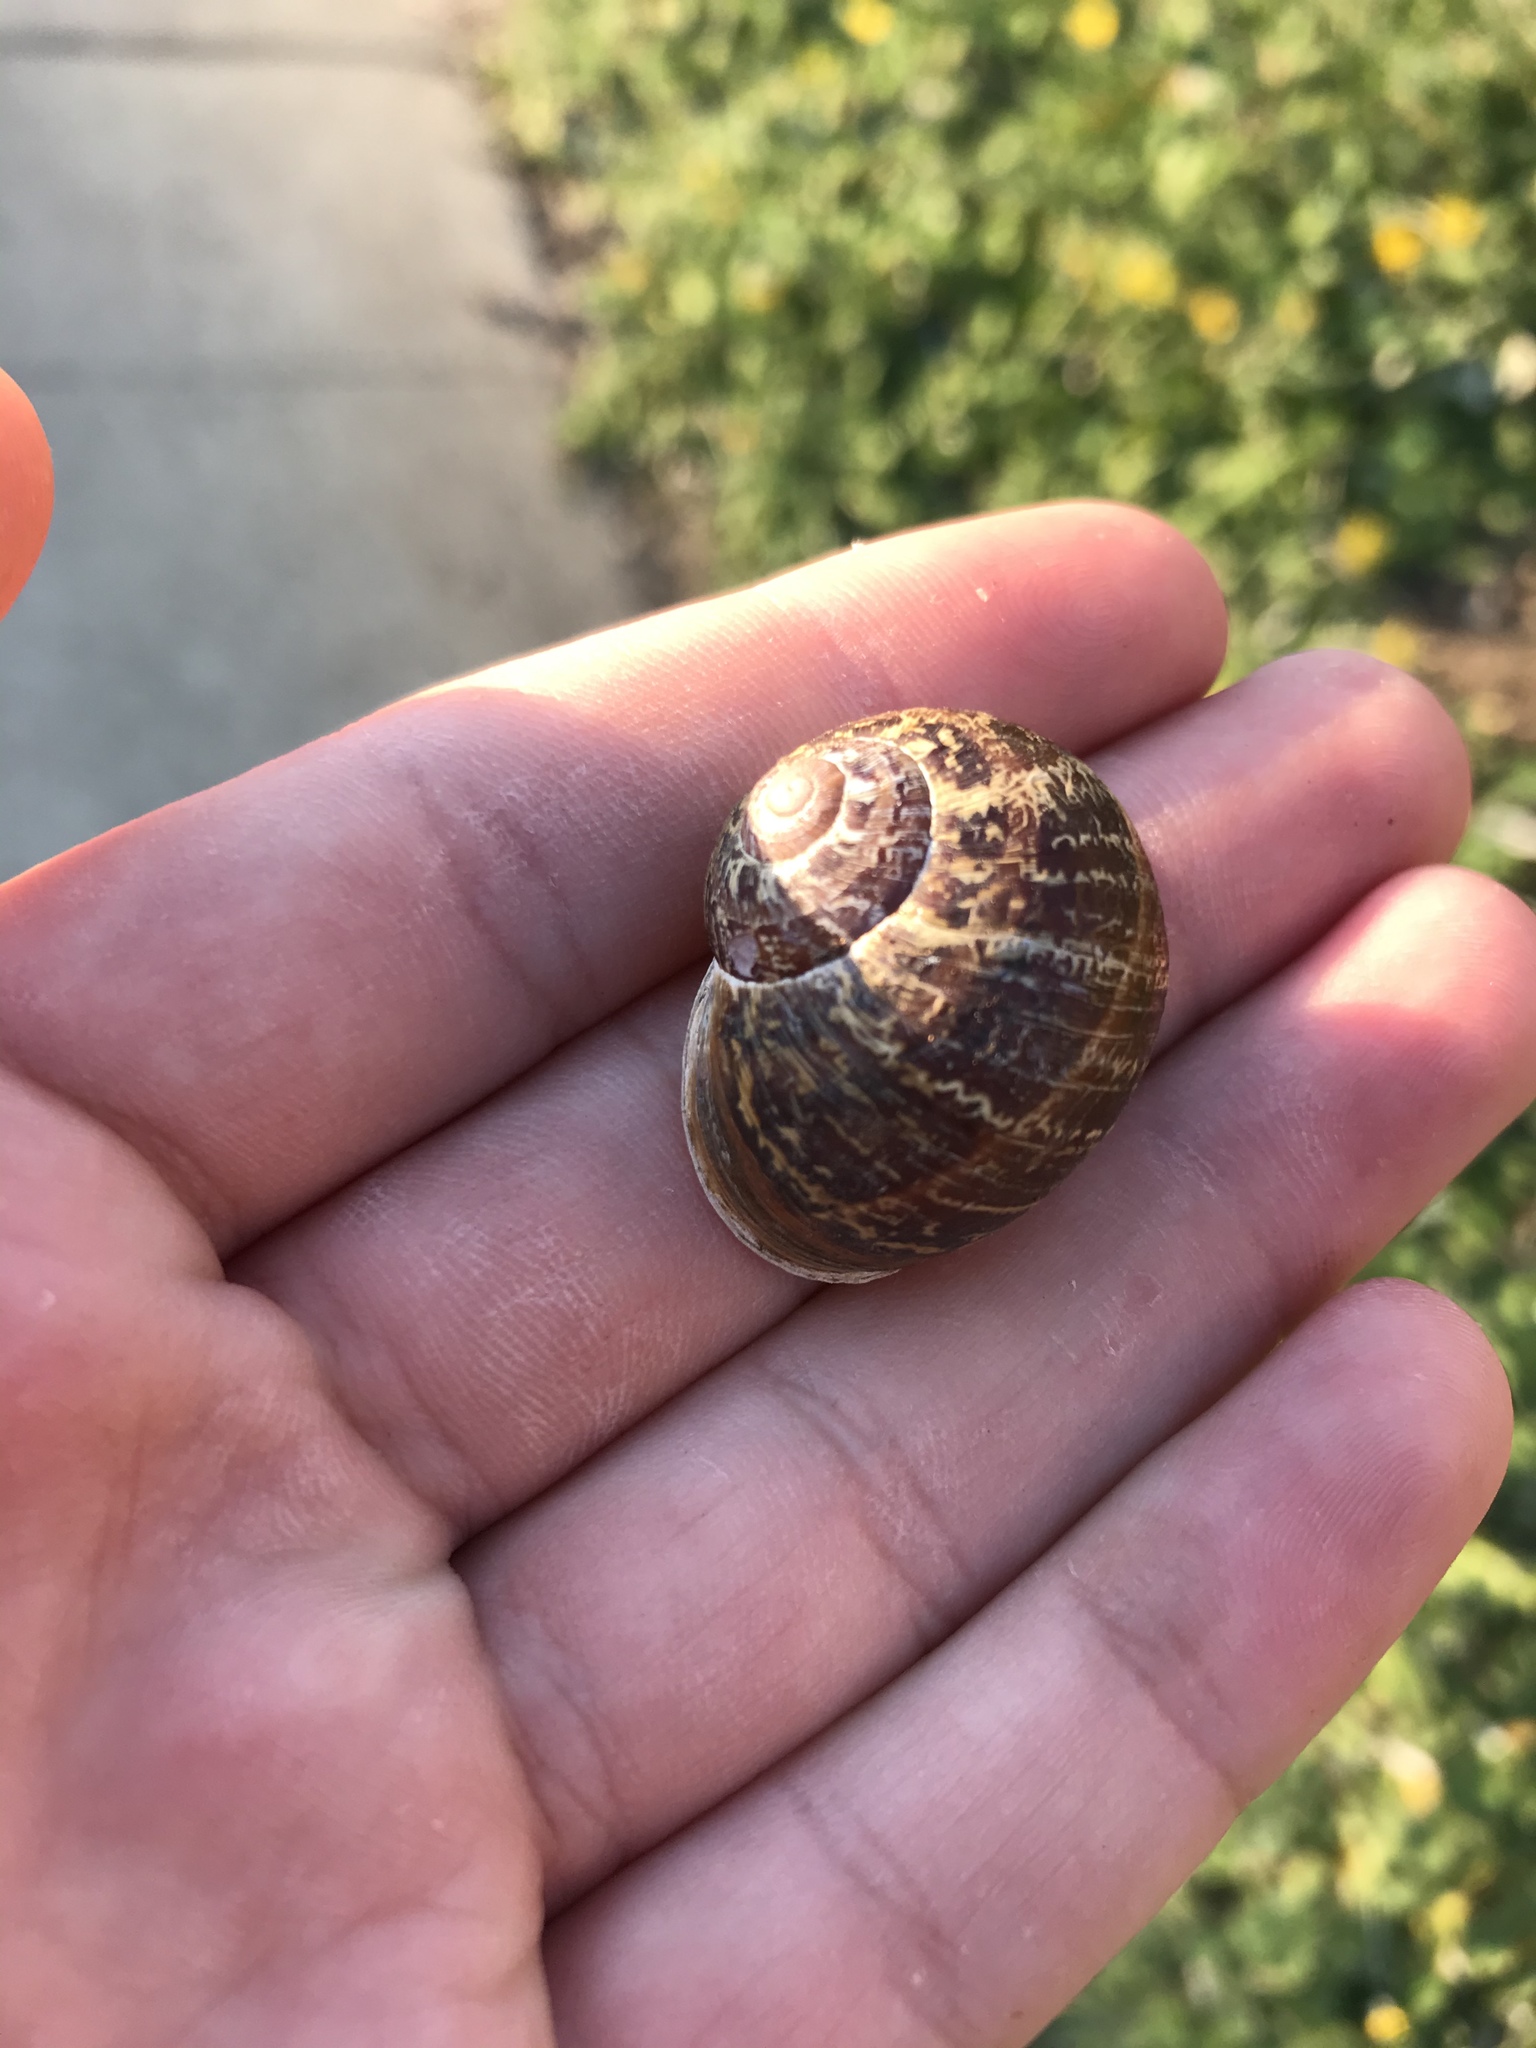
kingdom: Animalia
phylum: Mollusca
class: Gastropoda
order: Stylommatophora
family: Helicidae
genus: Cornu
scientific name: Cornu aspersum
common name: Brown garden snail
